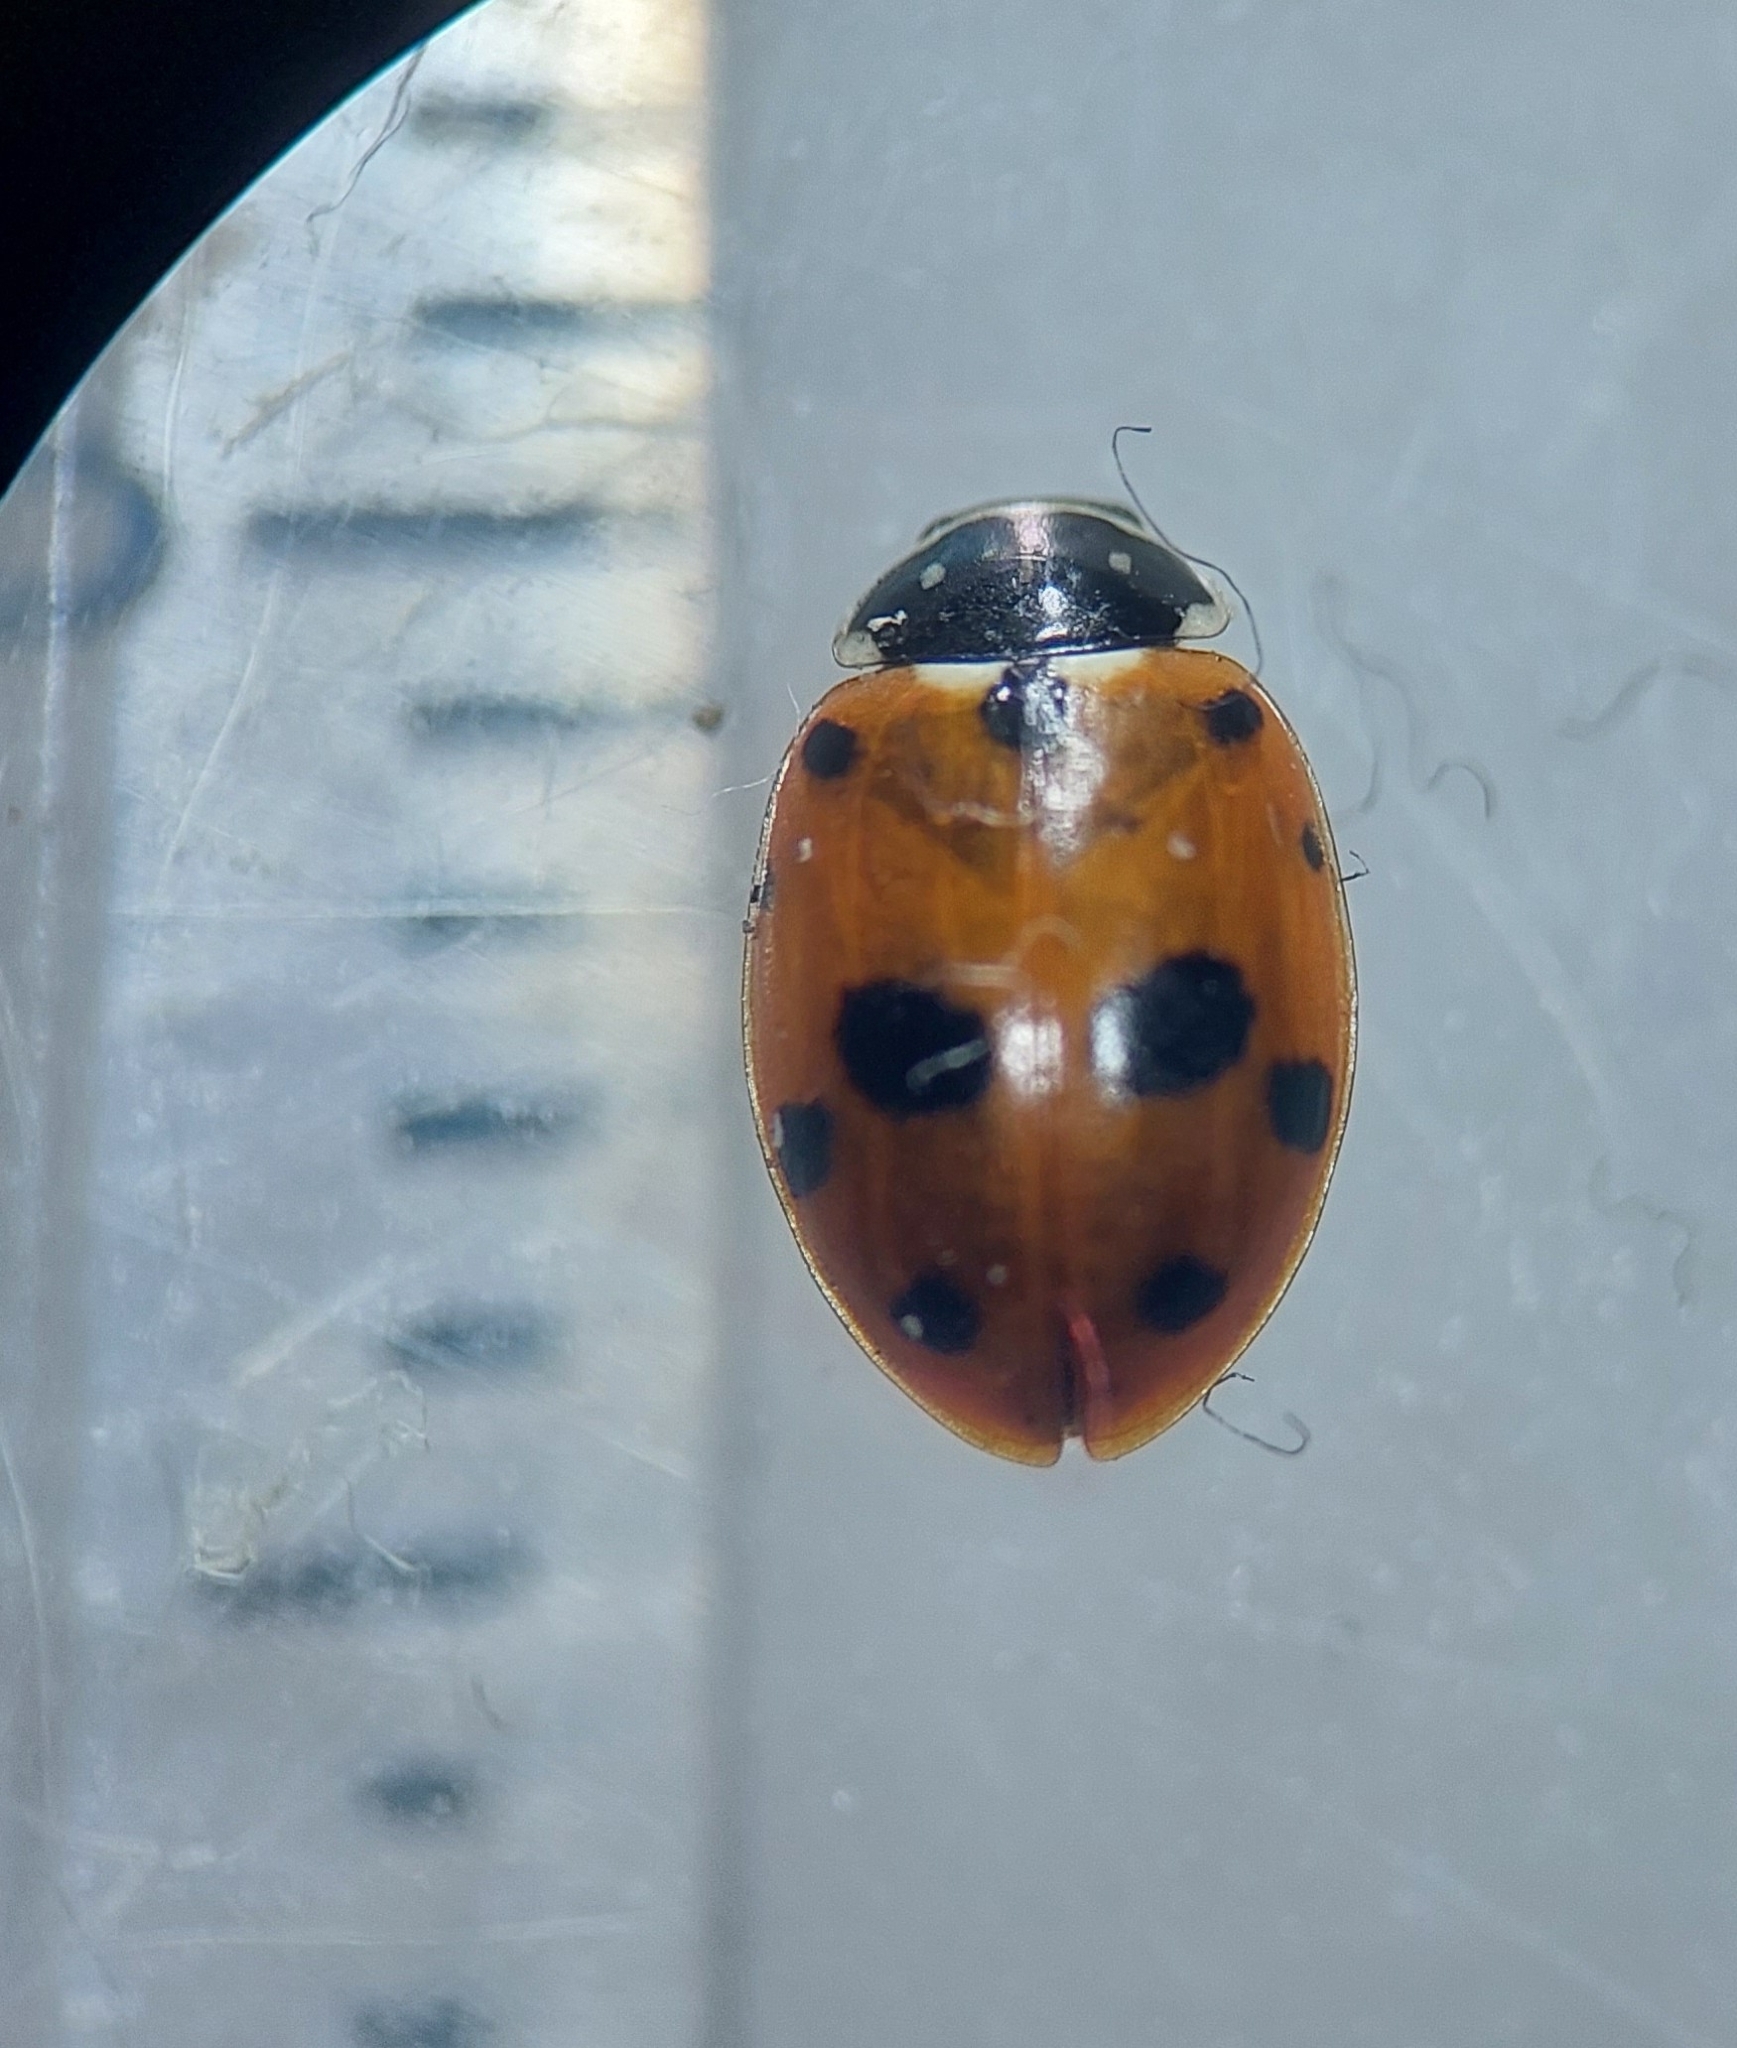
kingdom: Animalia
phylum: Arthropoda
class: Insecta
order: Coleoptera
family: Coccinellidae
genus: Hippodamia
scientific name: Hippodamia variegata
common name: Ladybird beetle
